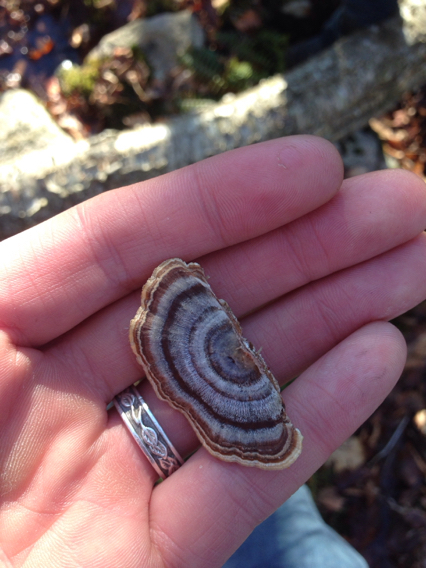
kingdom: Fungi
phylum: Basidiomycota
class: Agaricomycetes
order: Polyporales
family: Polyporaceae
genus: Trametes
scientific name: Trametes versicolor
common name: Turkeytail
